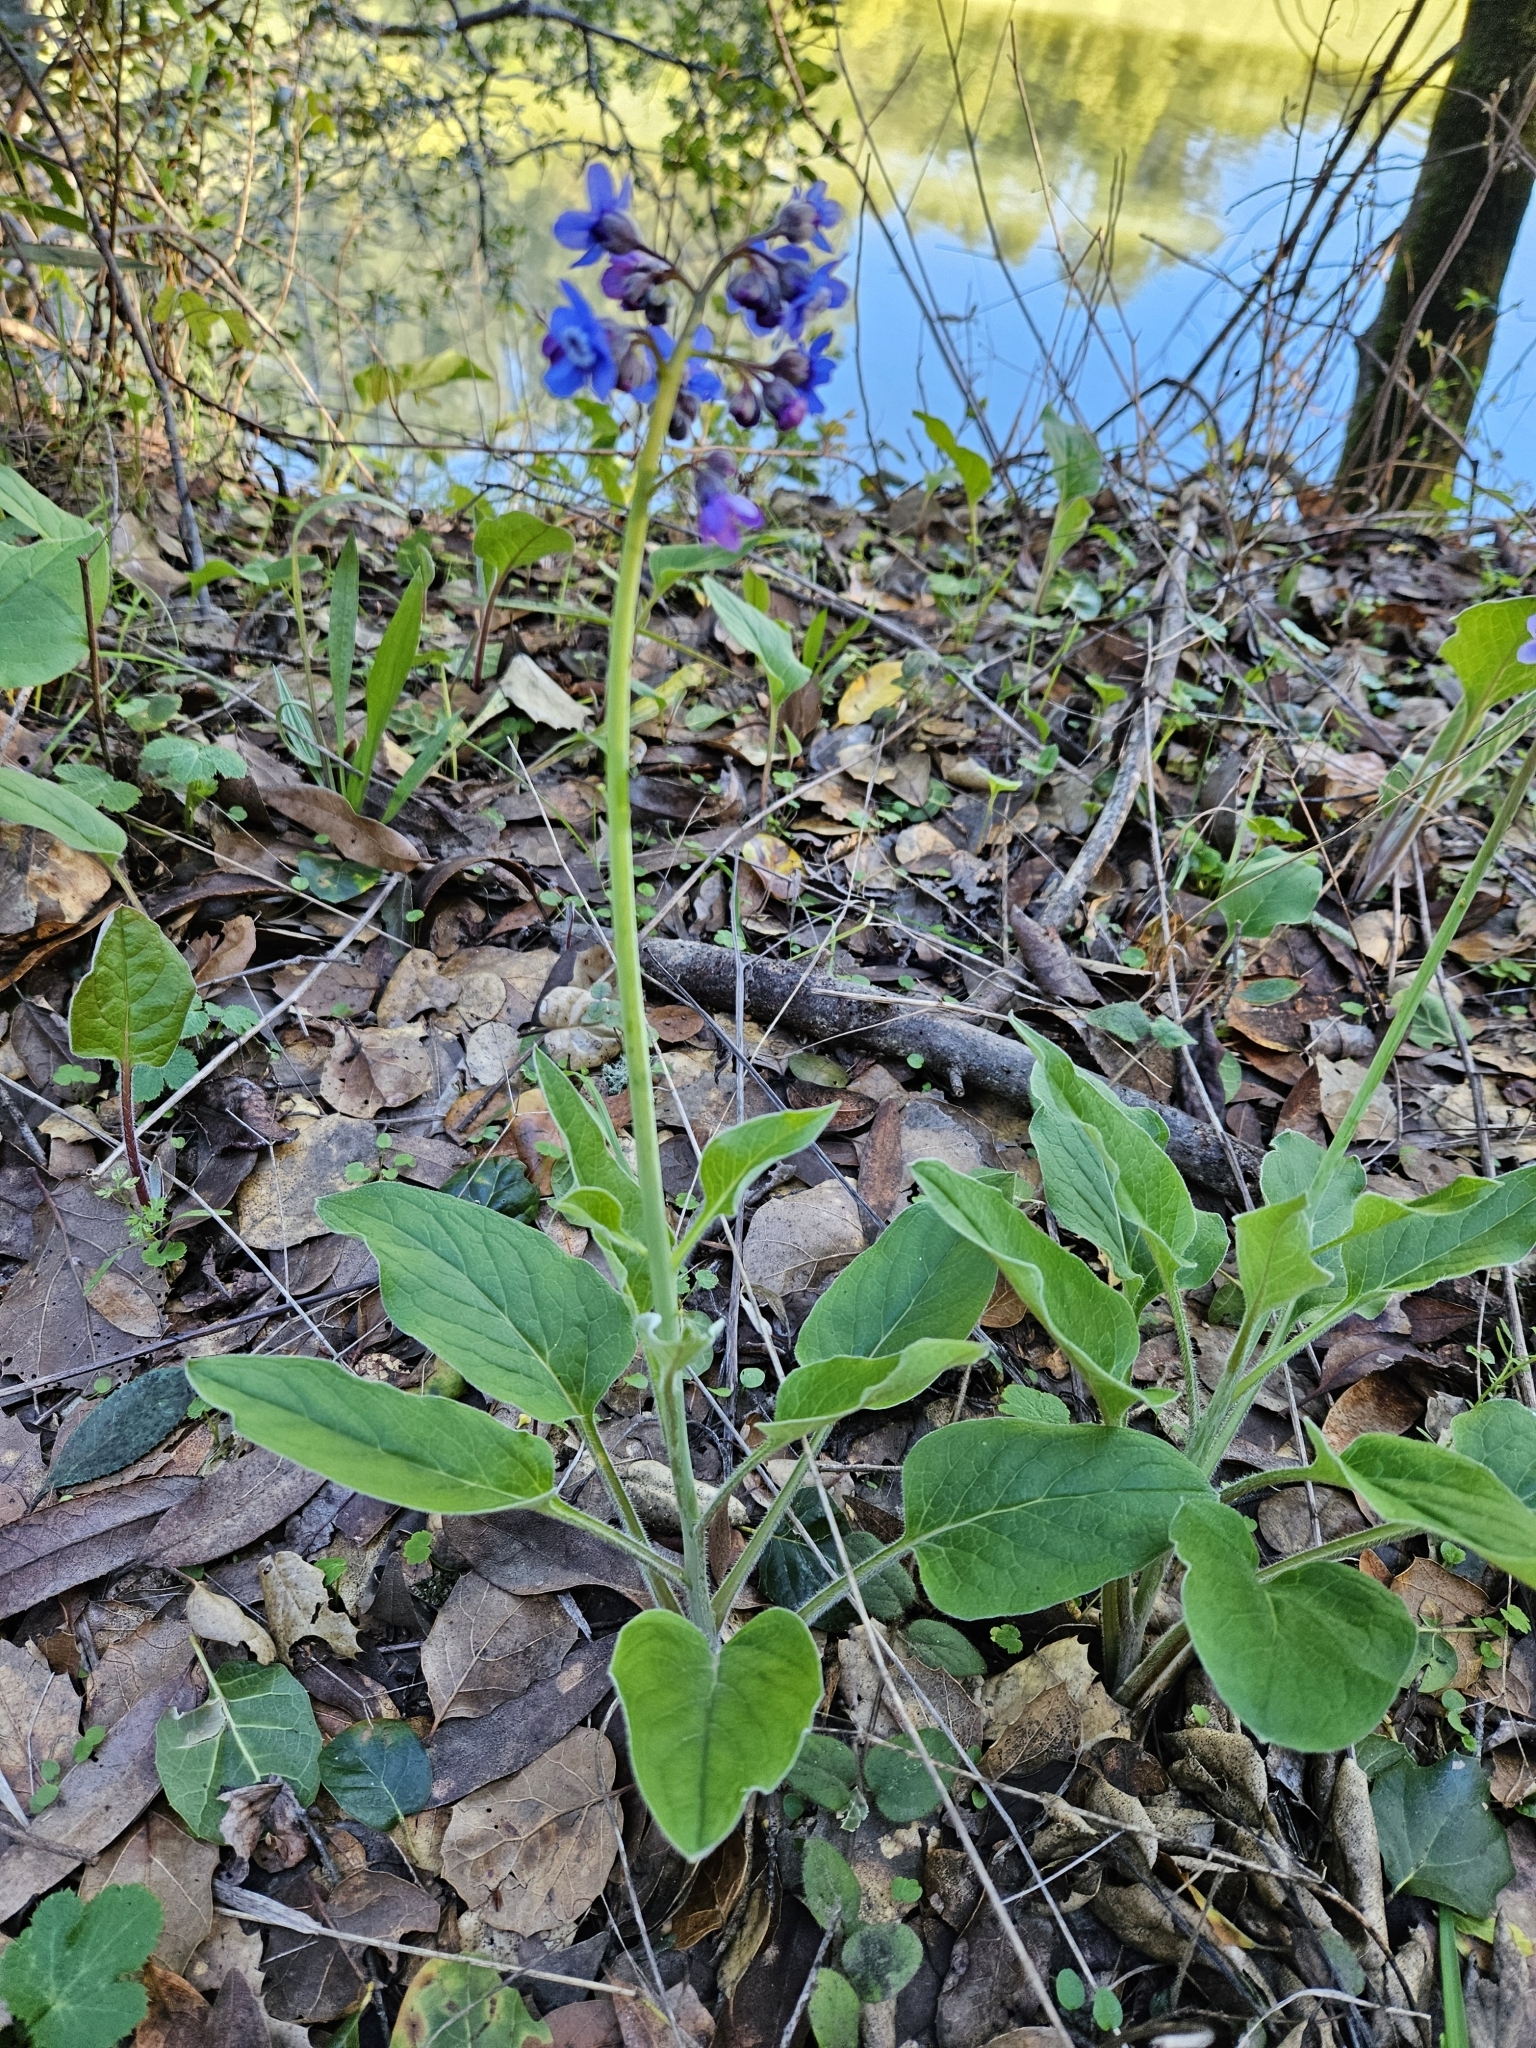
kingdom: Plantae
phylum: Tracheophyta
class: Magnoliopsida
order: Boraginales
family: Boraginaceae
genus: Adelinia
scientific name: Adelinia grande
